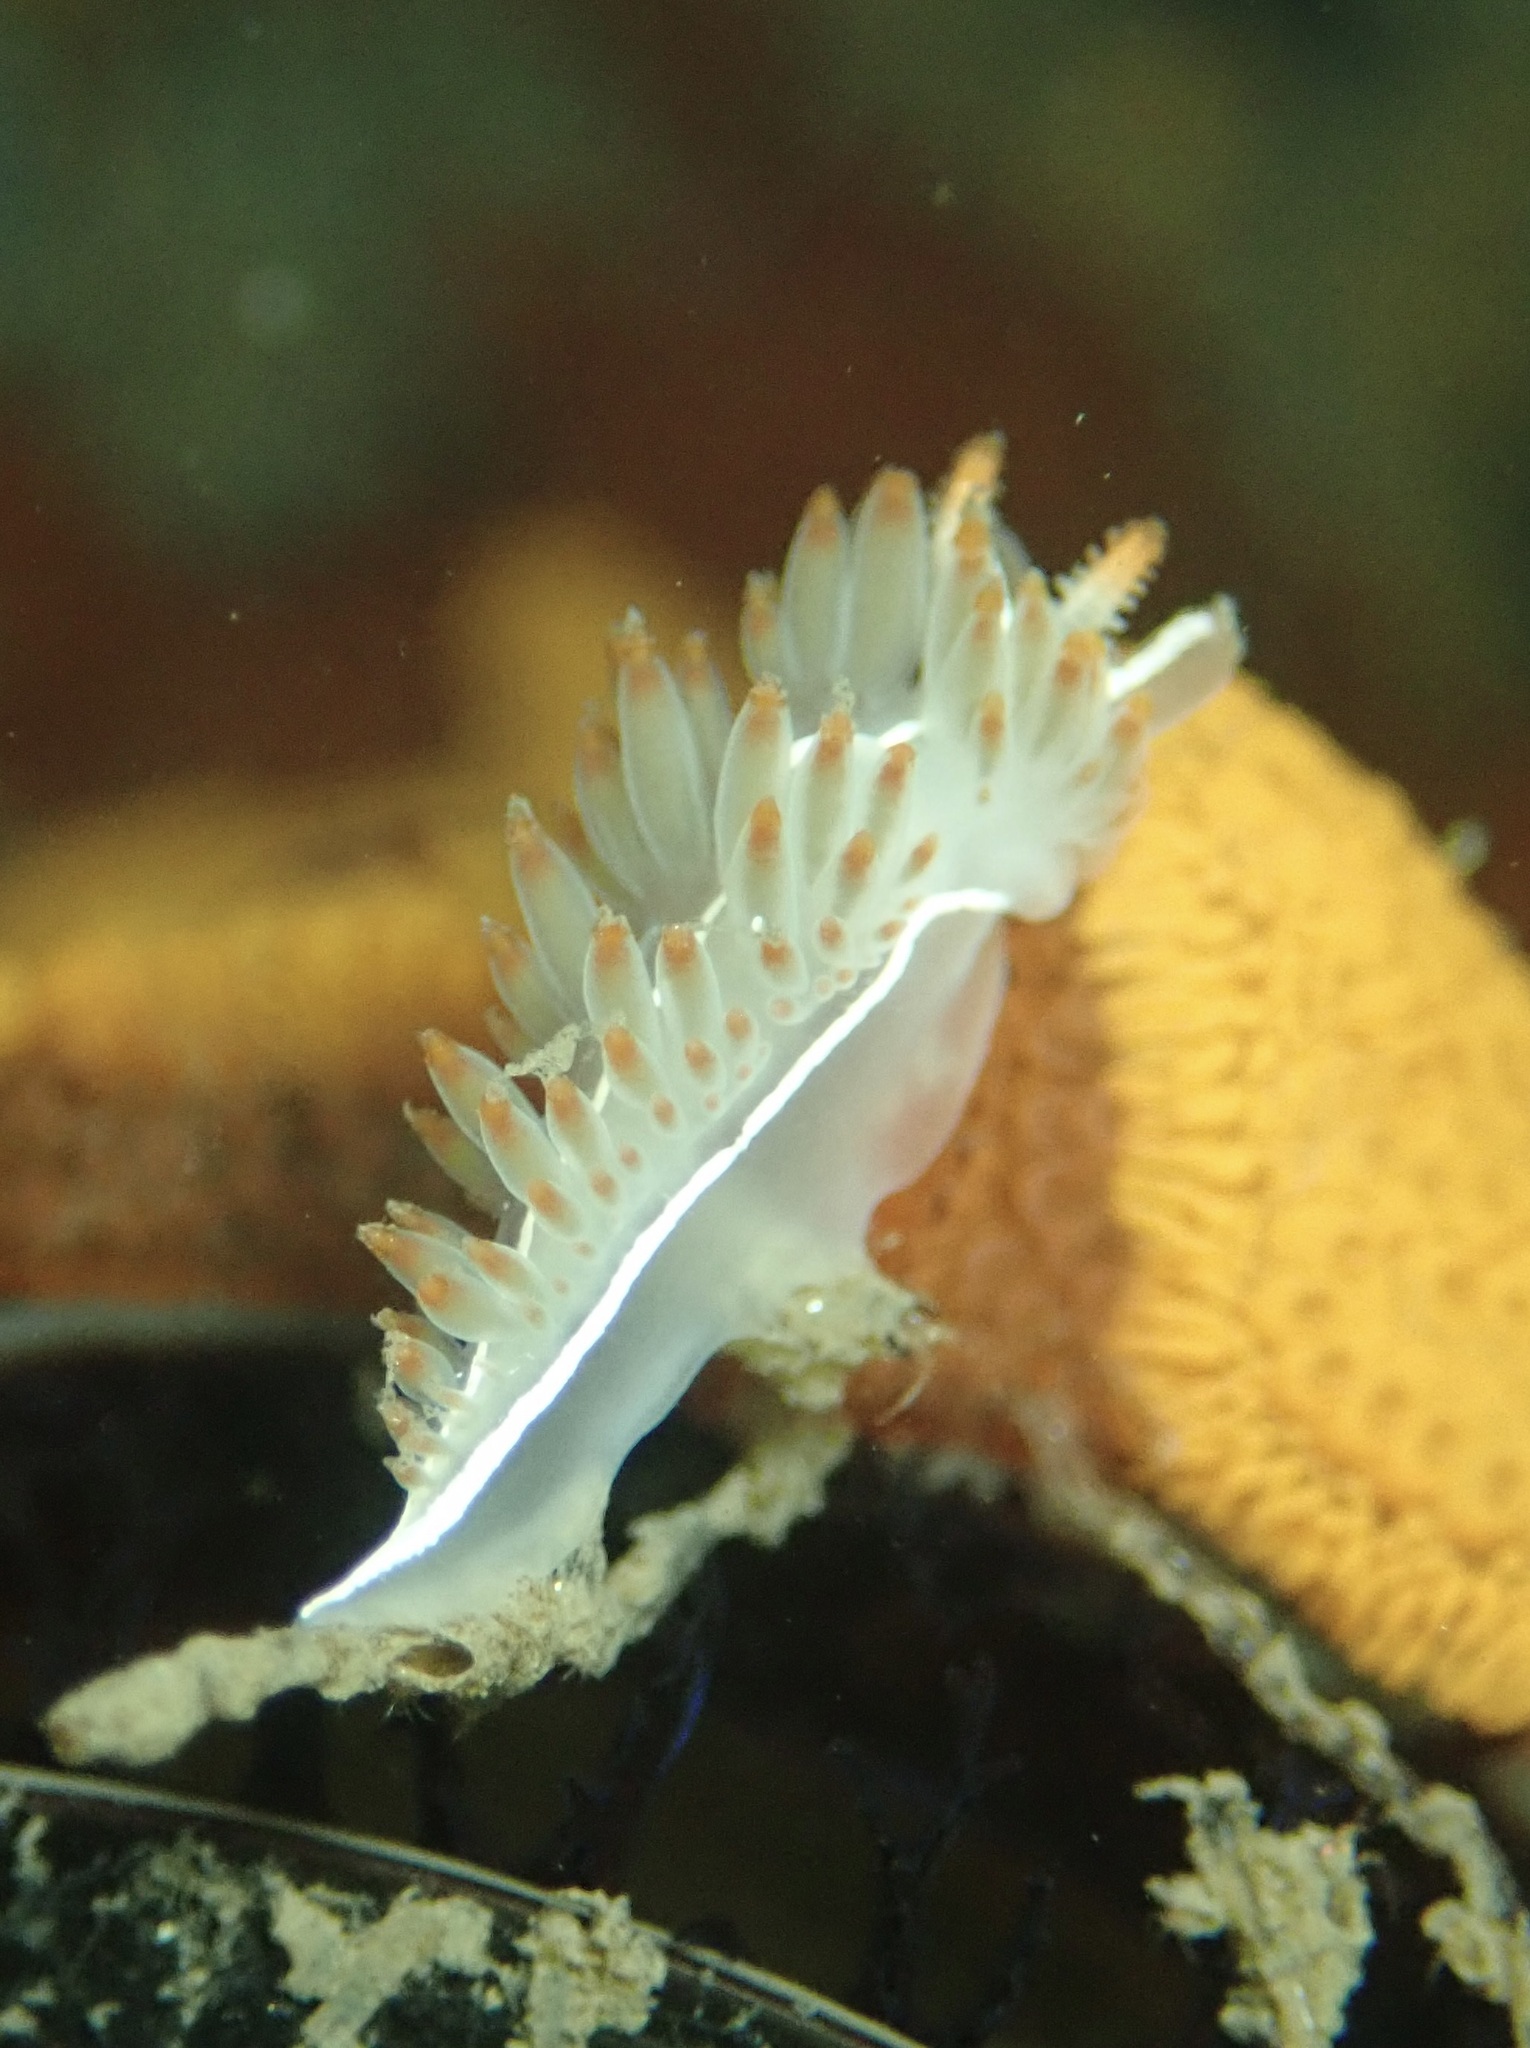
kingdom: Animalia
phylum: Mollusca
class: Gastropoda
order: Nudibranchia
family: Coryphellidae
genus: Coryphella
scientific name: Coryphella trilineata
